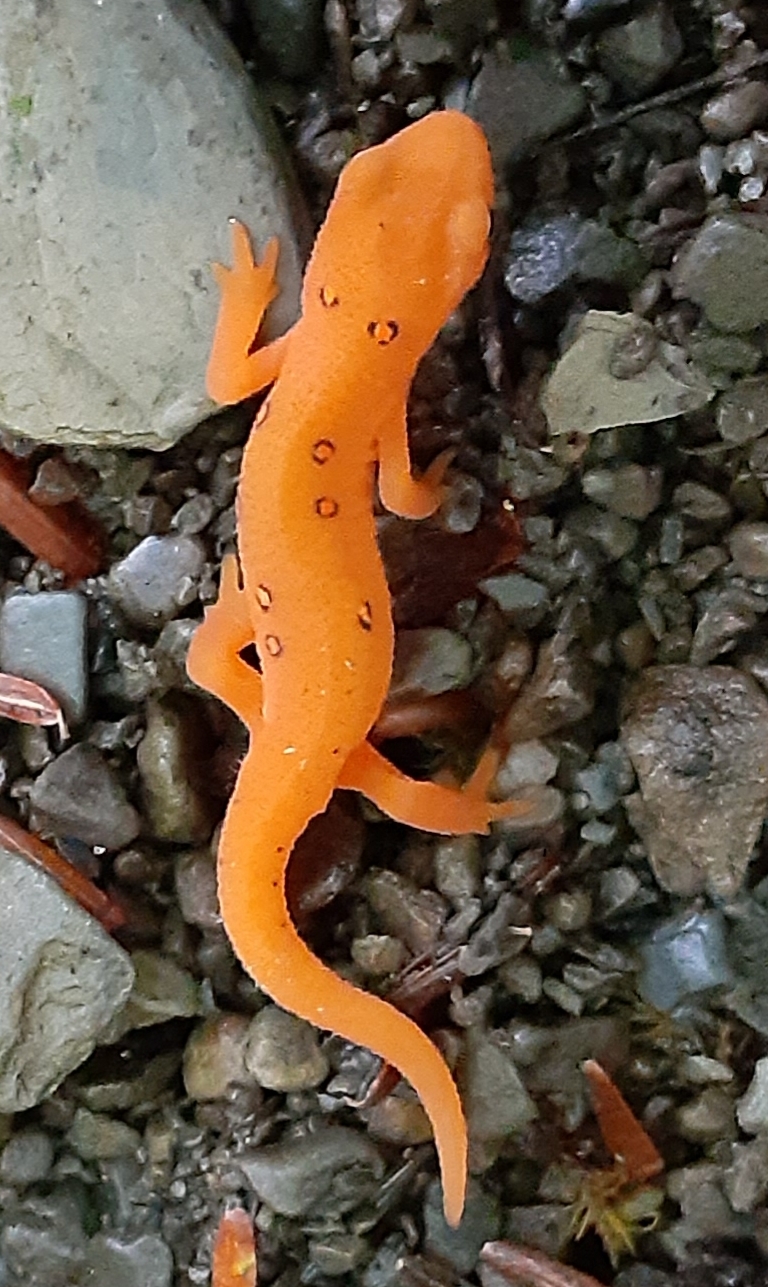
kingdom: Animalia
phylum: Chordata
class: Amphibia
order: Caudata
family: Salamandridae
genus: Notophthalmus
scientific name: Notophthalmus viridescens
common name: Eastern newt
